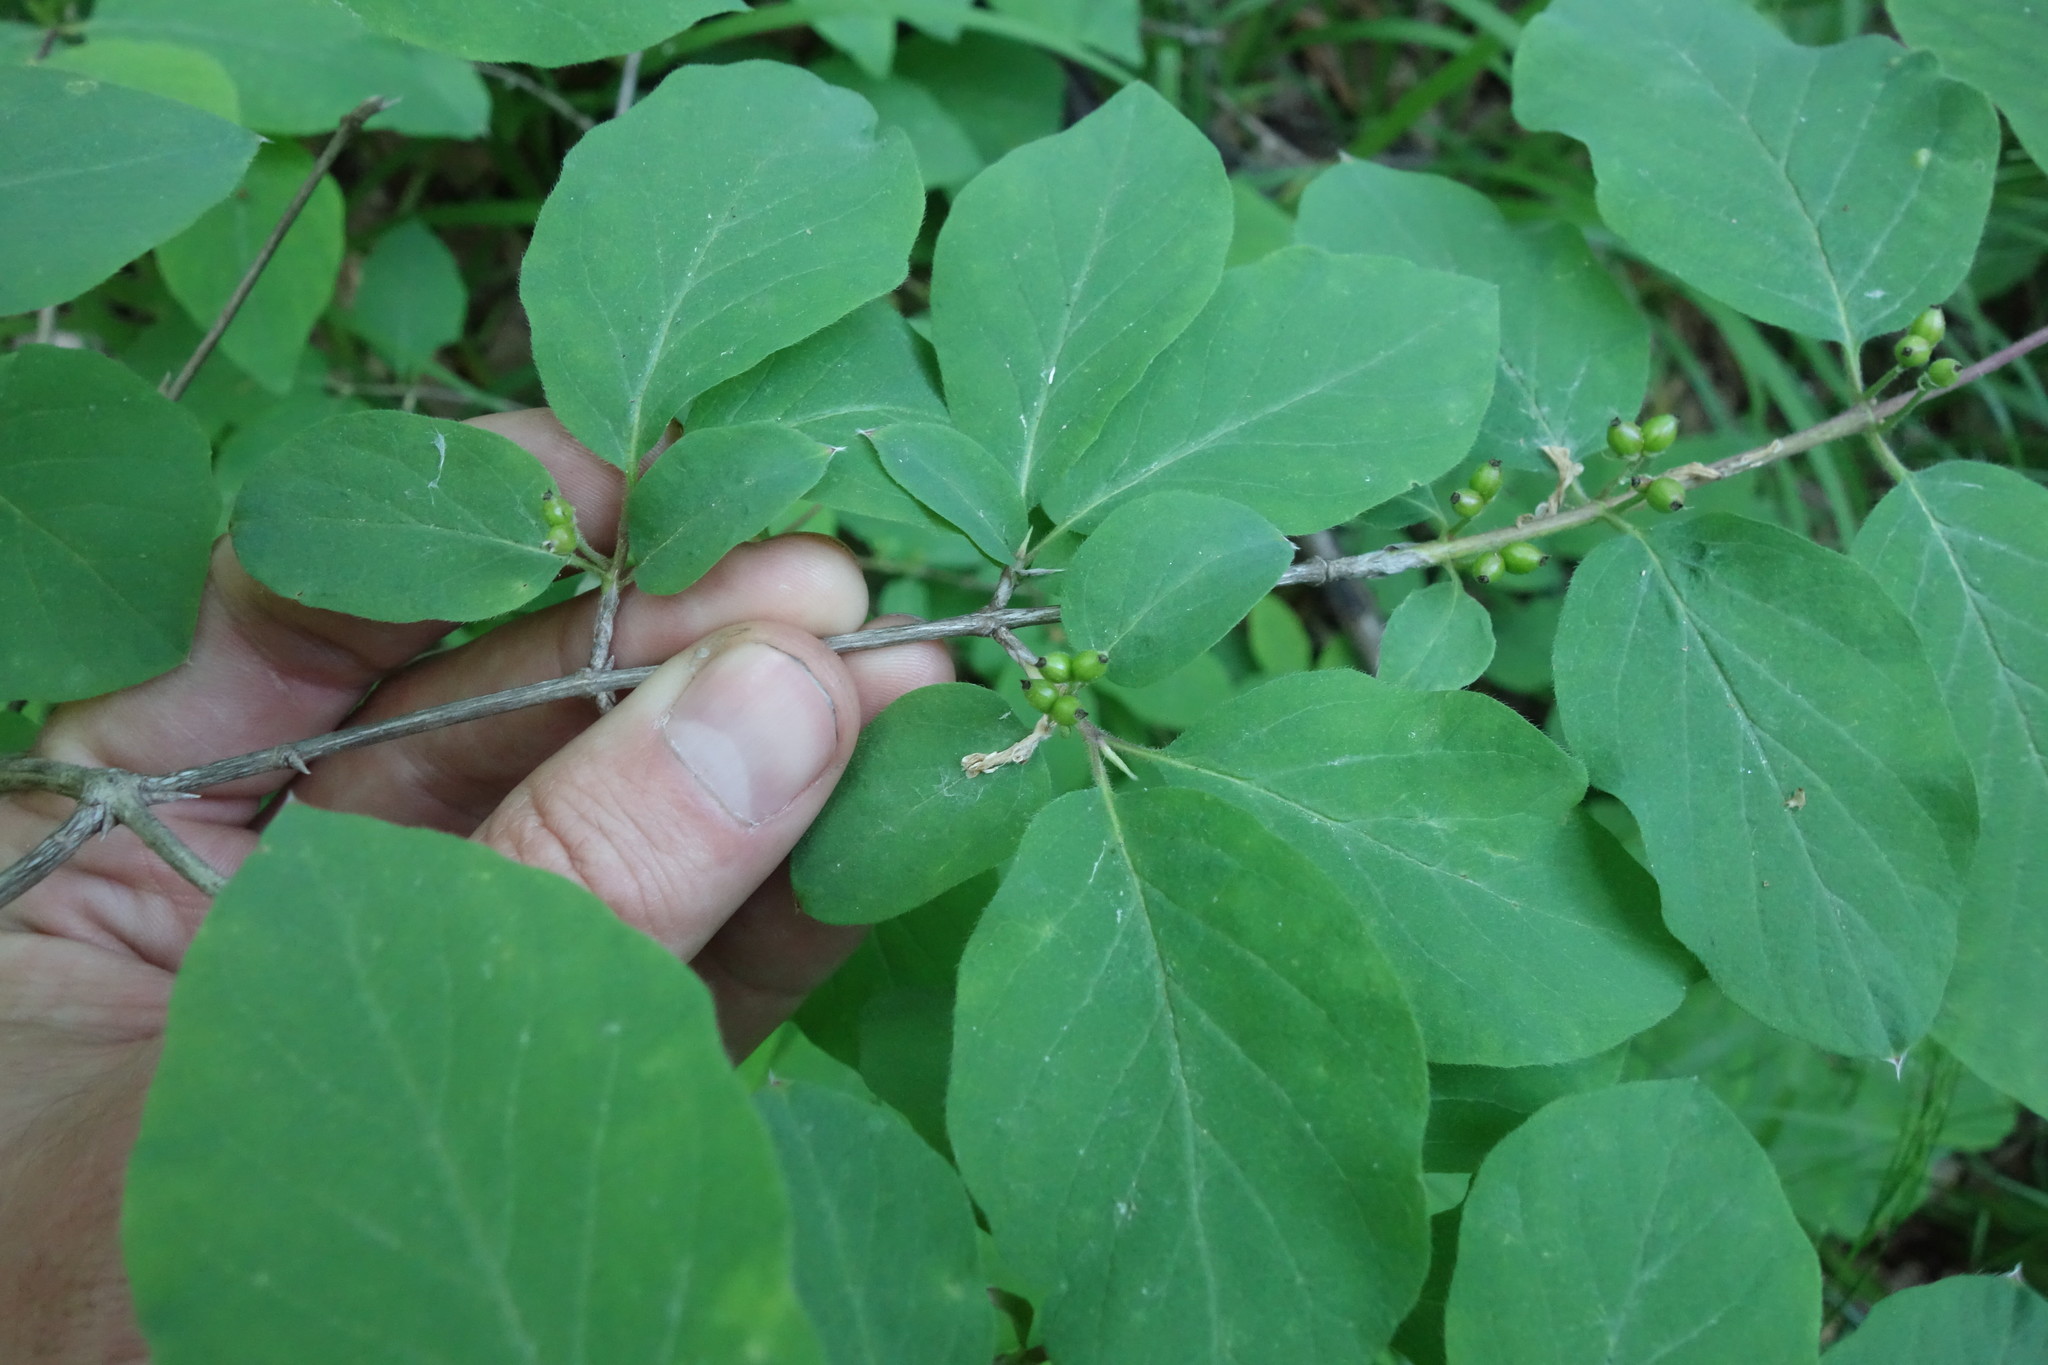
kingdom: Plantae
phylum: Tracheophyta
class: Magnoliopsida
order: Dipsacales
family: Caprifoliaceae
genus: Lonicera
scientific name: Lonicera xylosteum
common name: Fly honeysuckle
